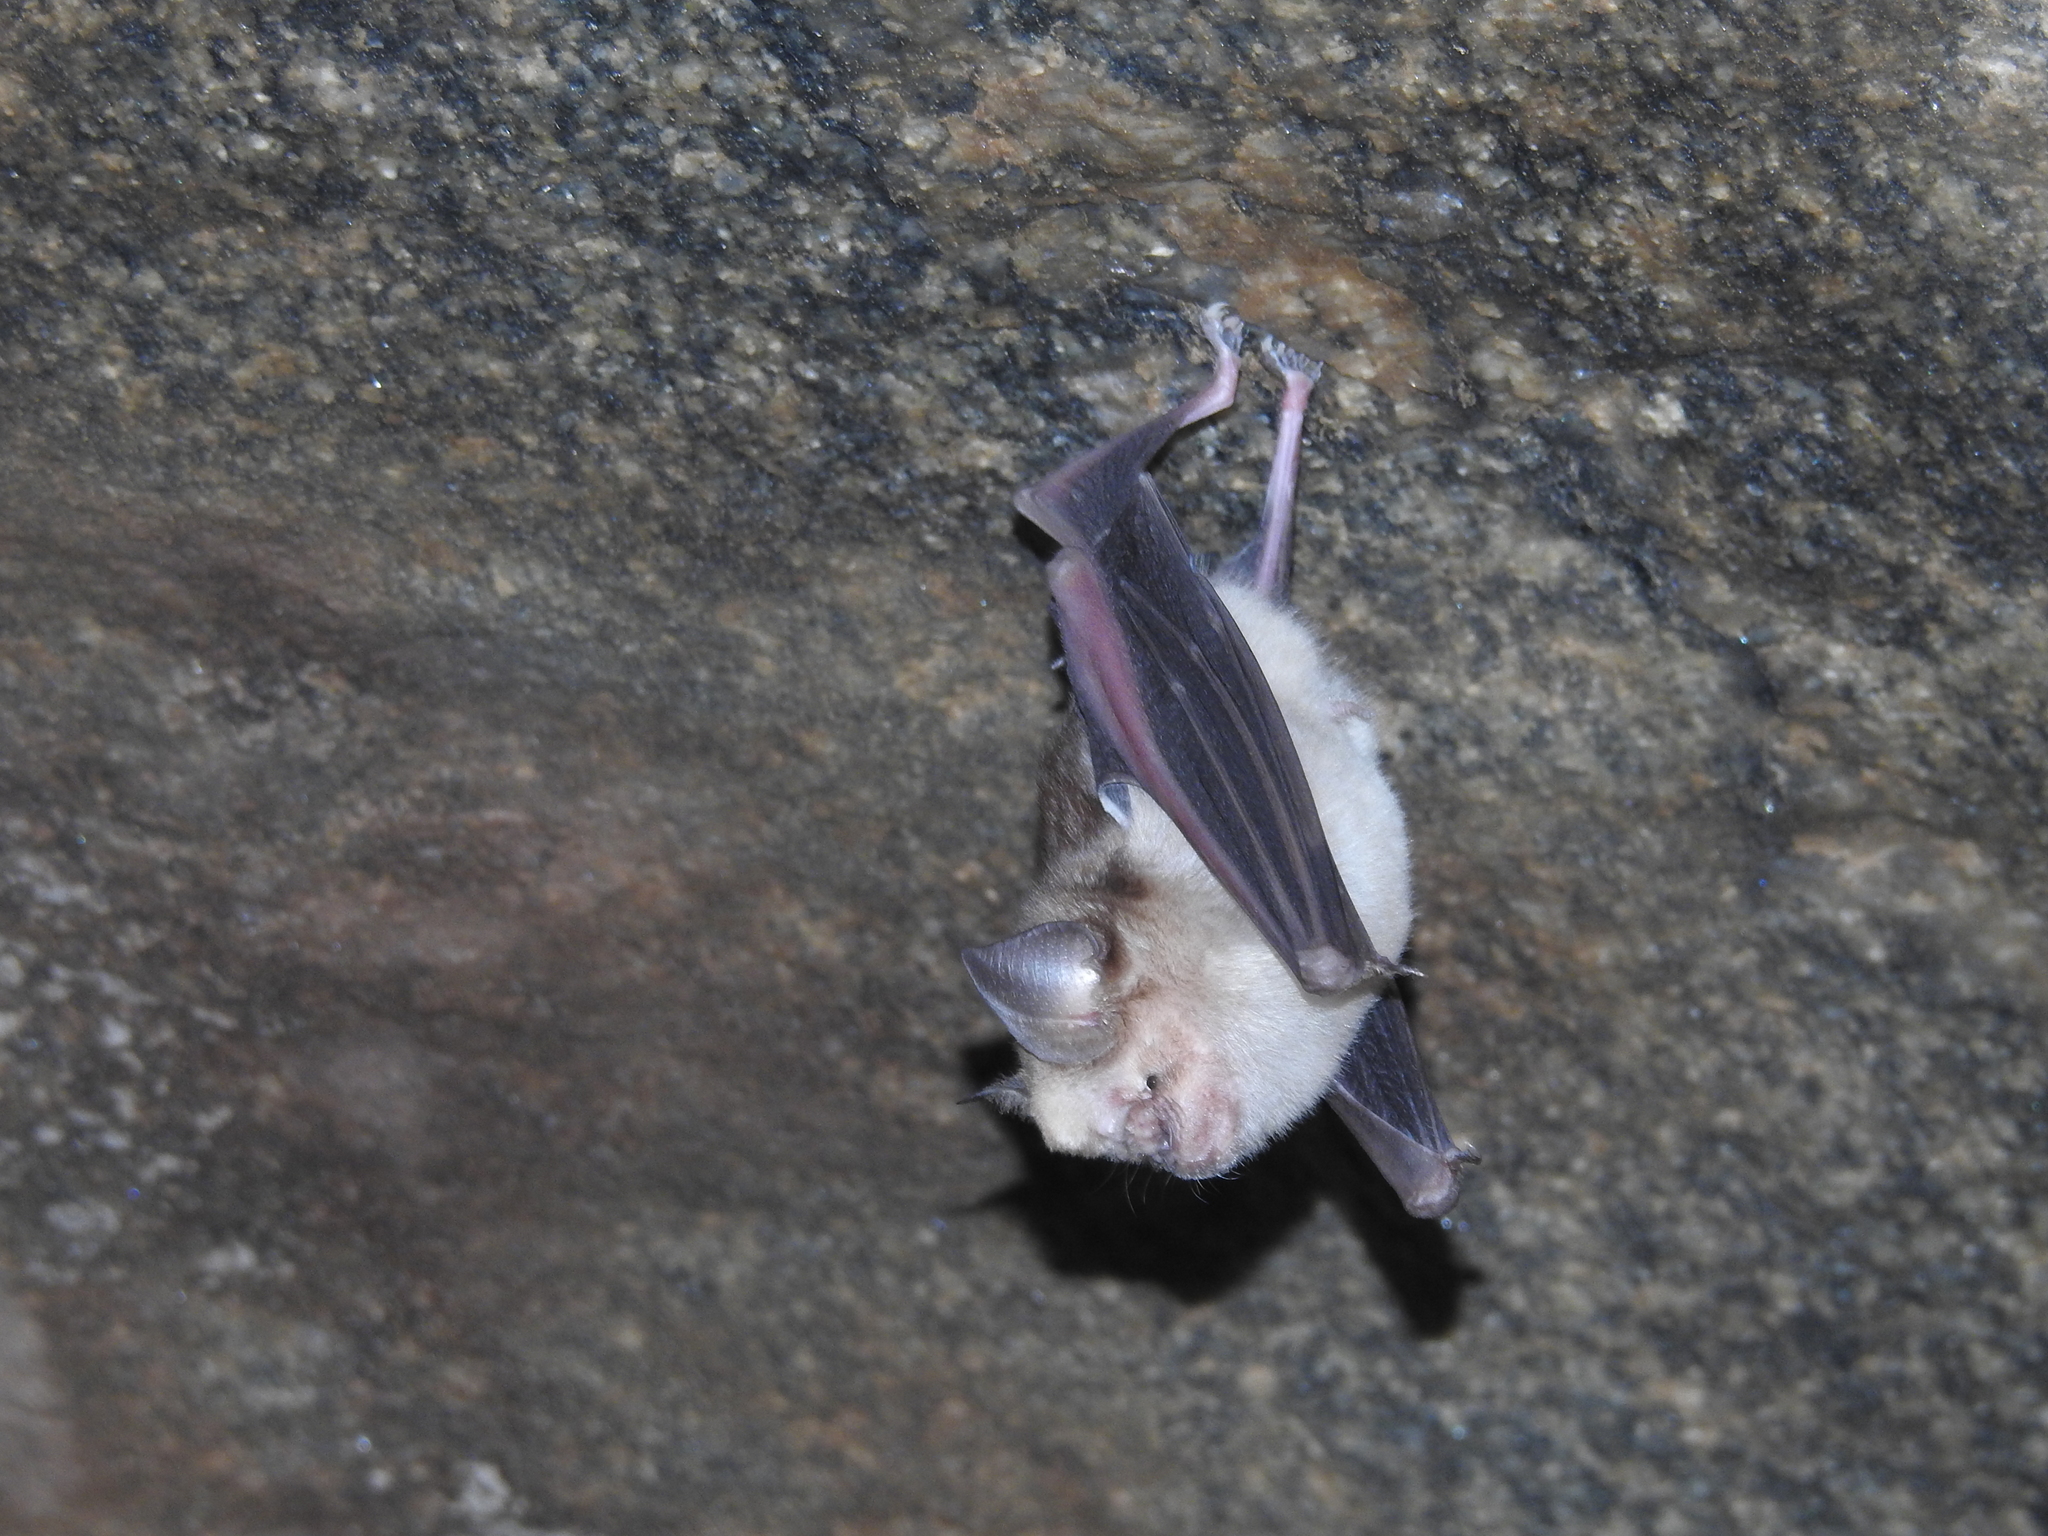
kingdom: Animalia
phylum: Chordata
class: Mammalia
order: Chiroptera
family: Hipposideridae
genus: Hipposideros
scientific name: Hipposideros speoris
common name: Schneider's roundleaf bat
